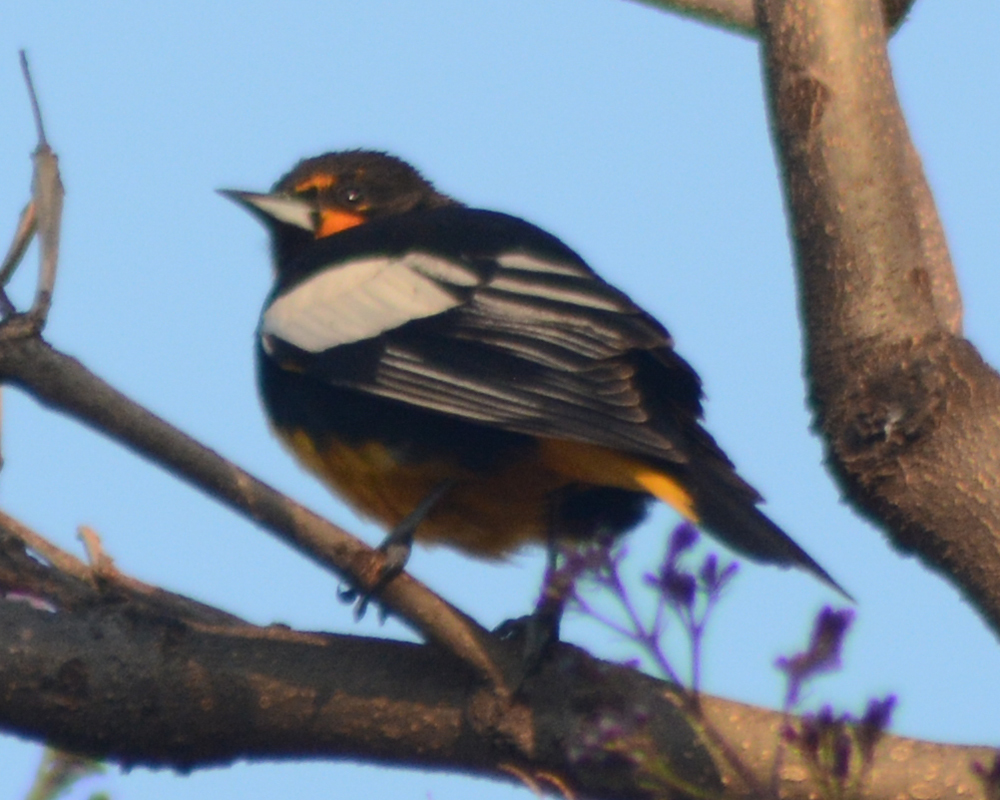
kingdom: Animalia
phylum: Chordata
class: Aves
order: Passeriformes
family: Icteridae
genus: Icterus
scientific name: Icterus abeillei
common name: Black-backed oriole
